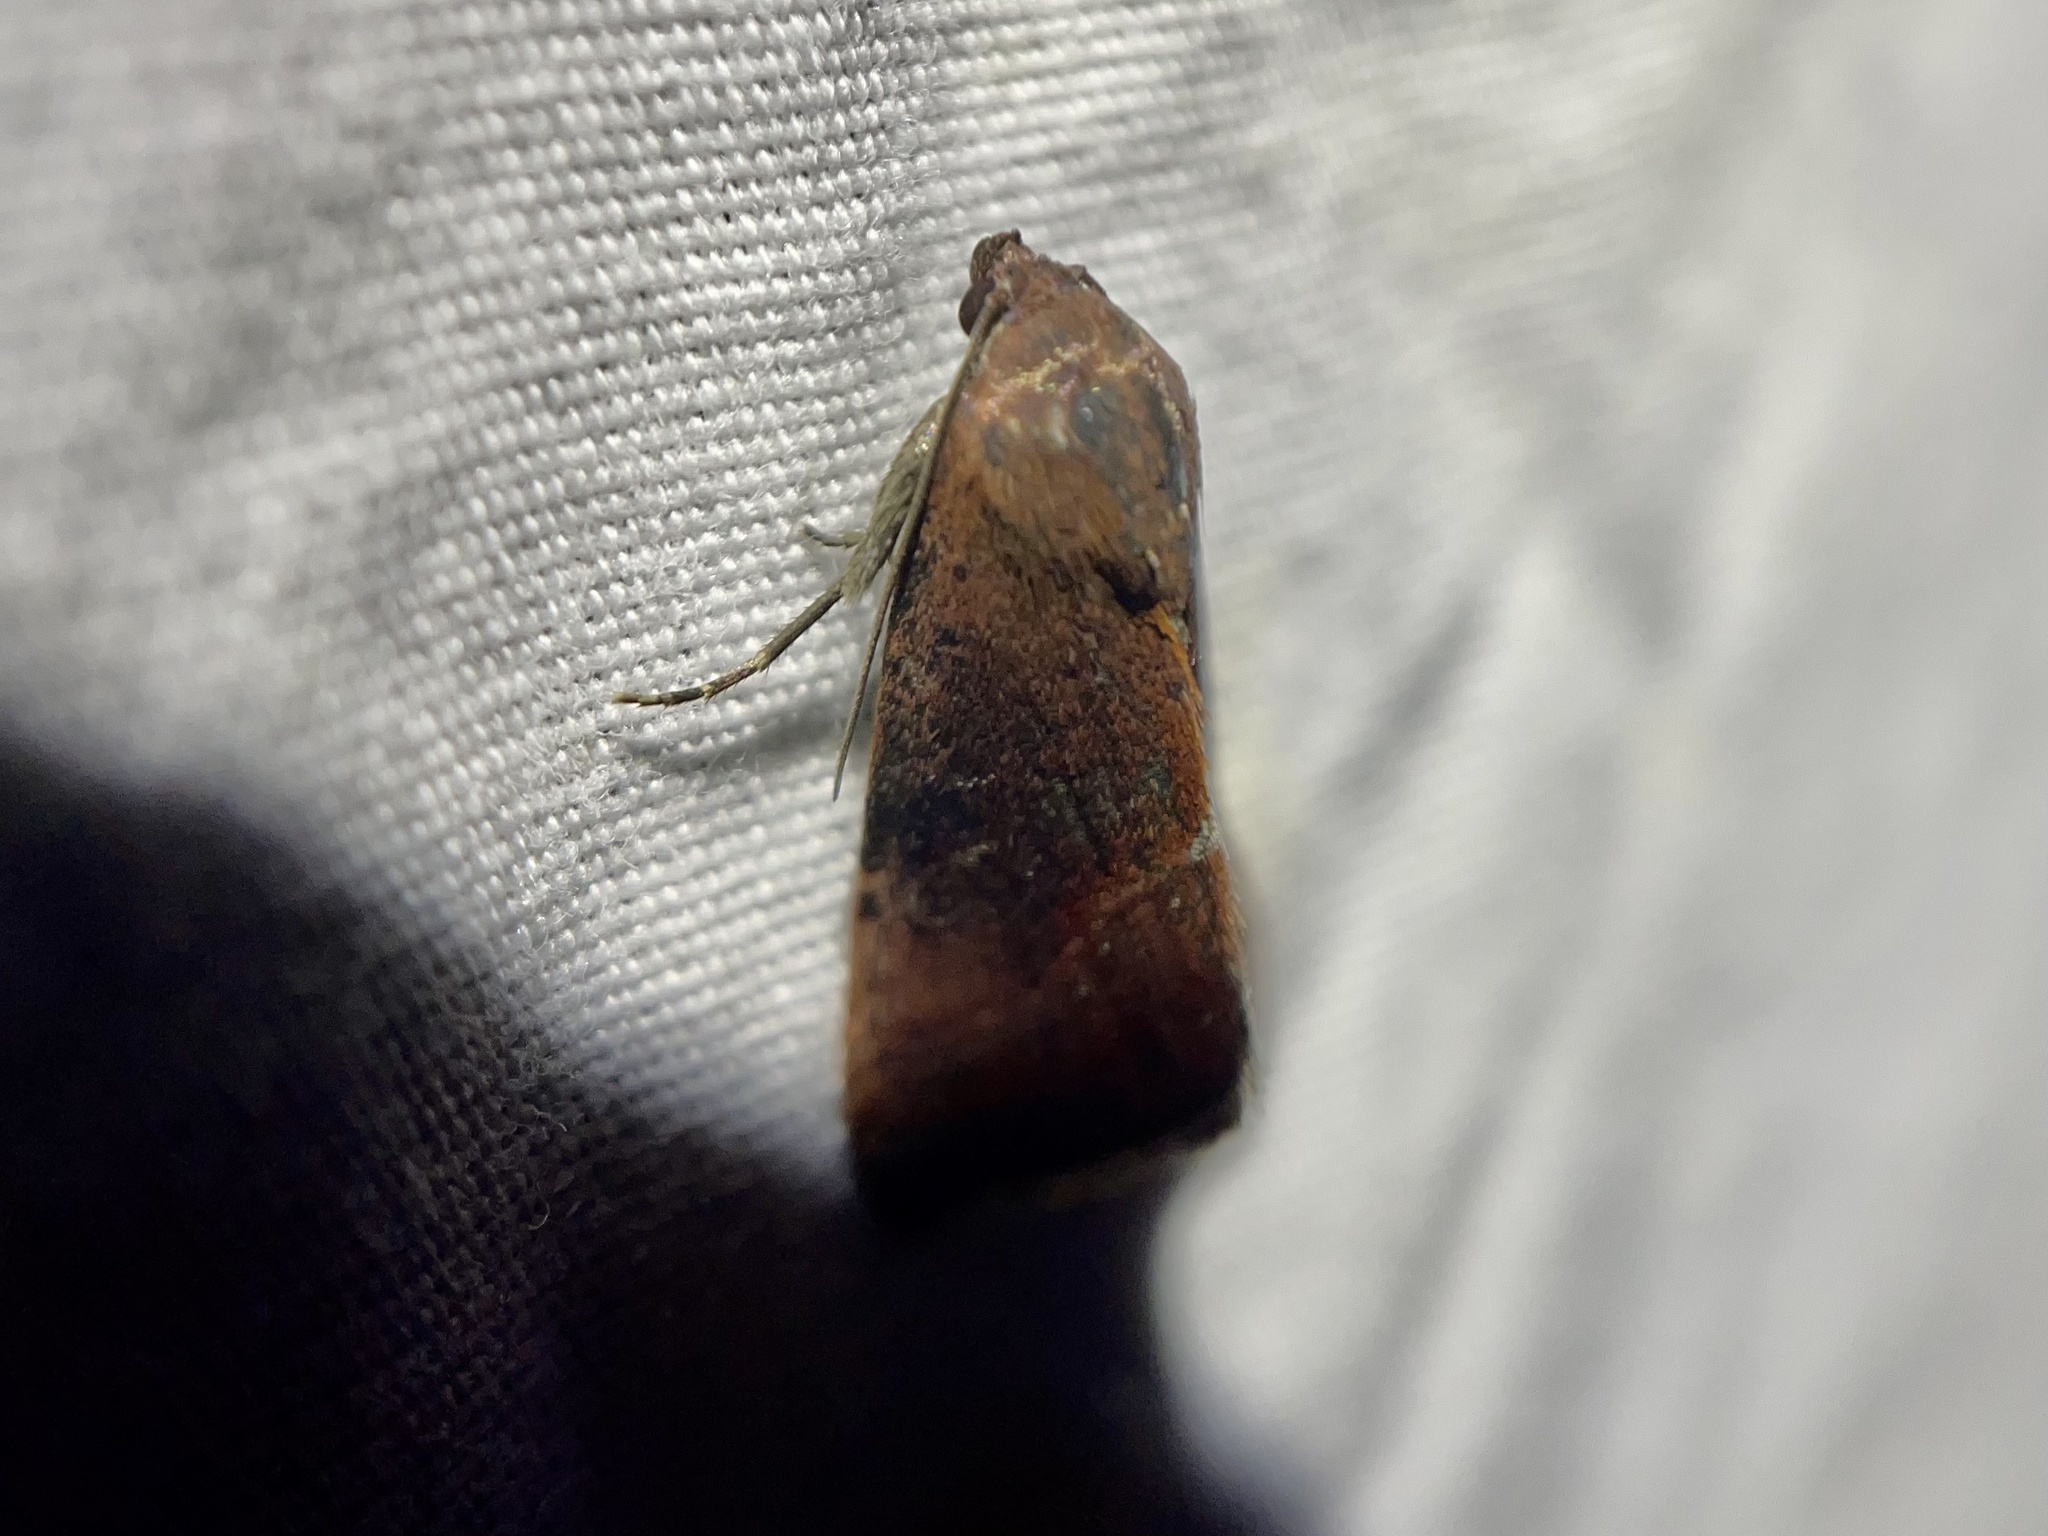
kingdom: Animalia
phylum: Arthropoda
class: Insecta
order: Lepidoptera
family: Noctuidae
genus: Galgula
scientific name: Galgula partita
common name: Wedgeling
